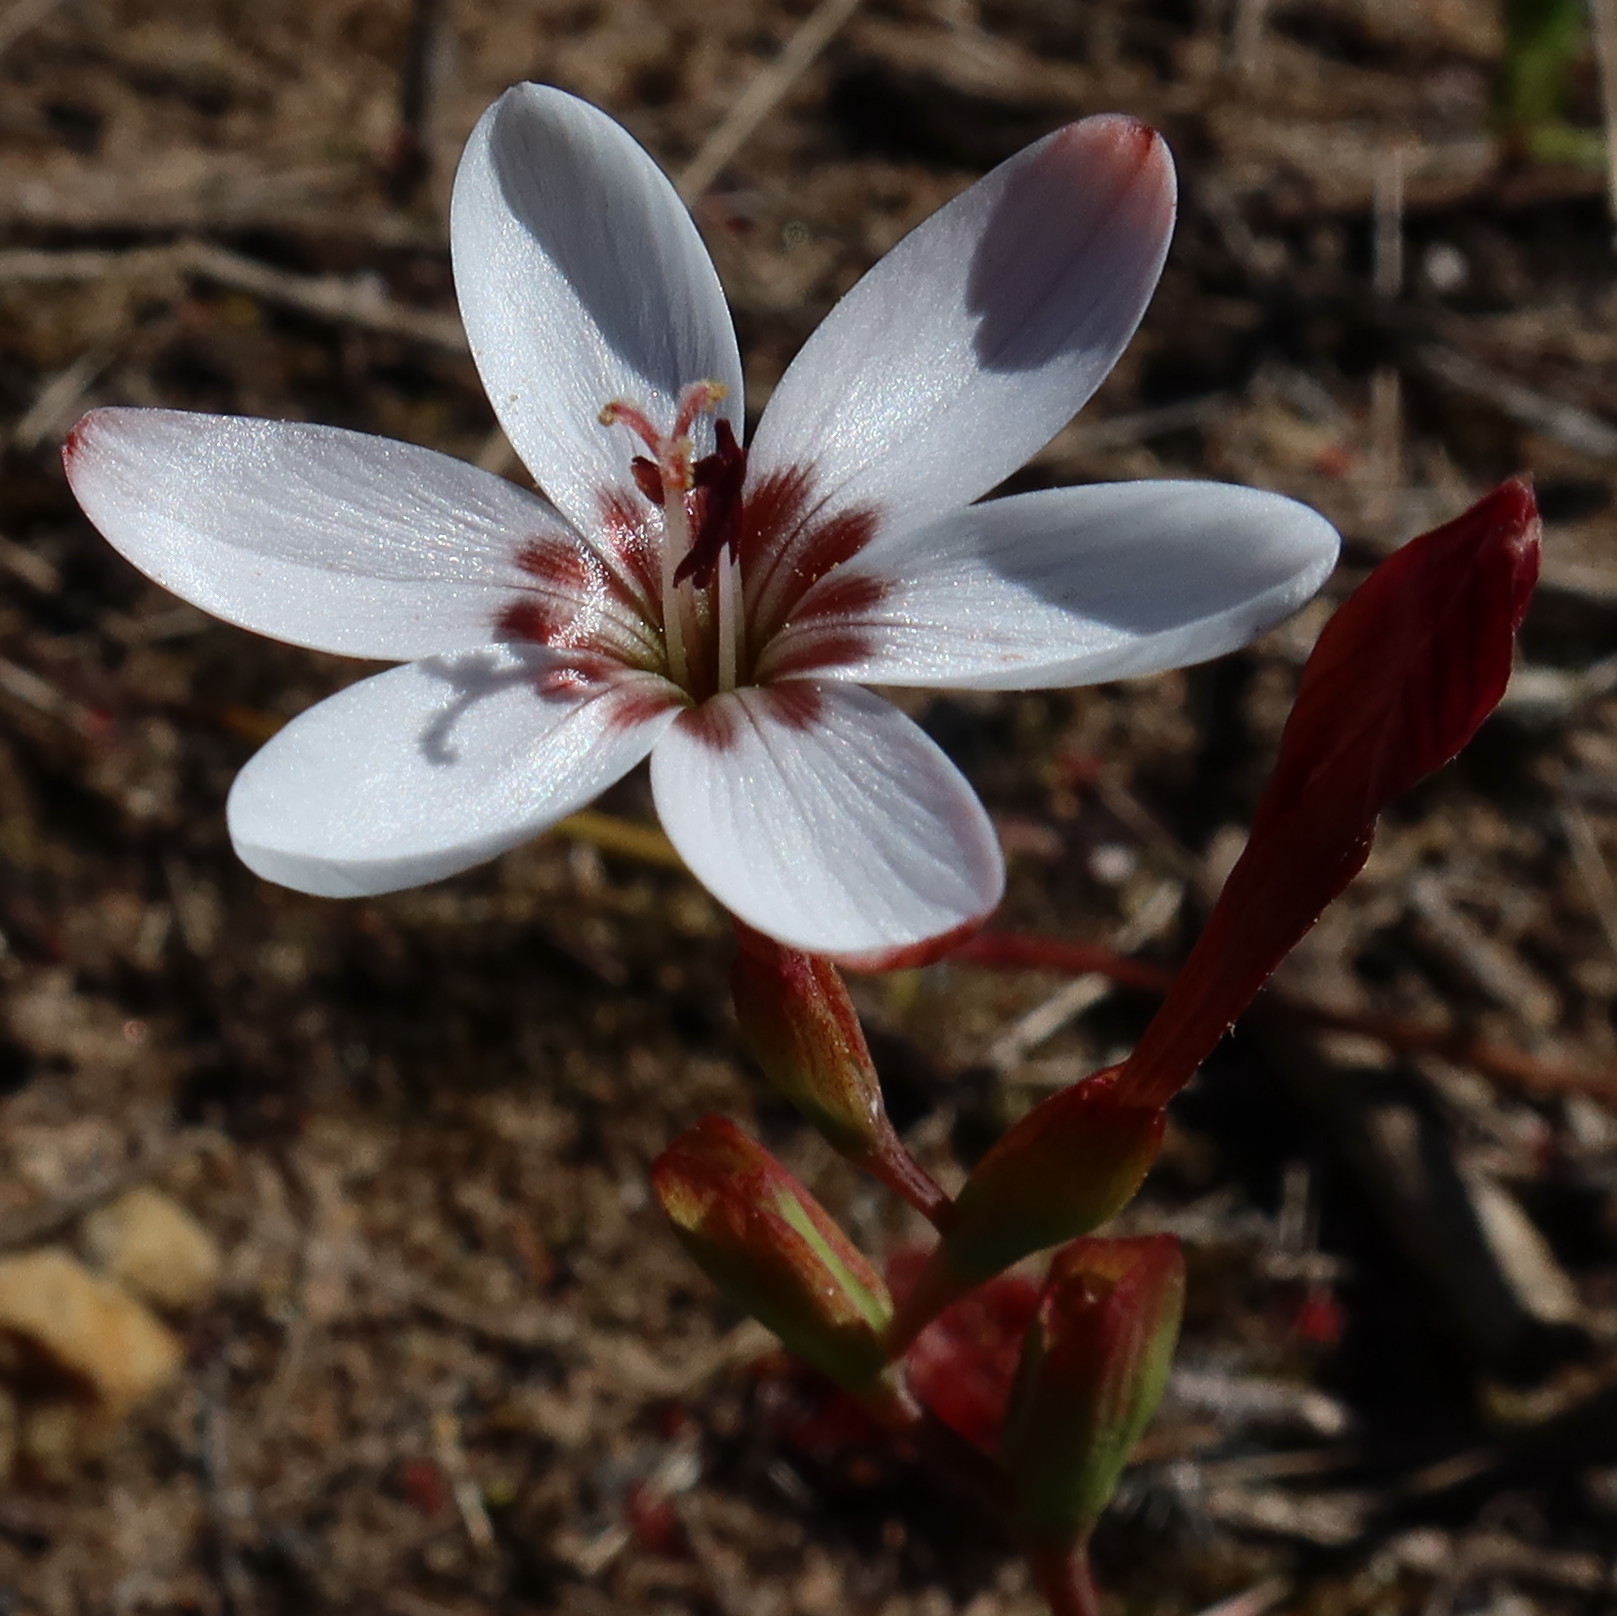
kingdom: Plantae
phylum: Tracheophyta
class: Liliopsida
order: Asparagales
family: Iridaceae
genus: Geissorhiza
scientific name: Geissorhiza ovata
